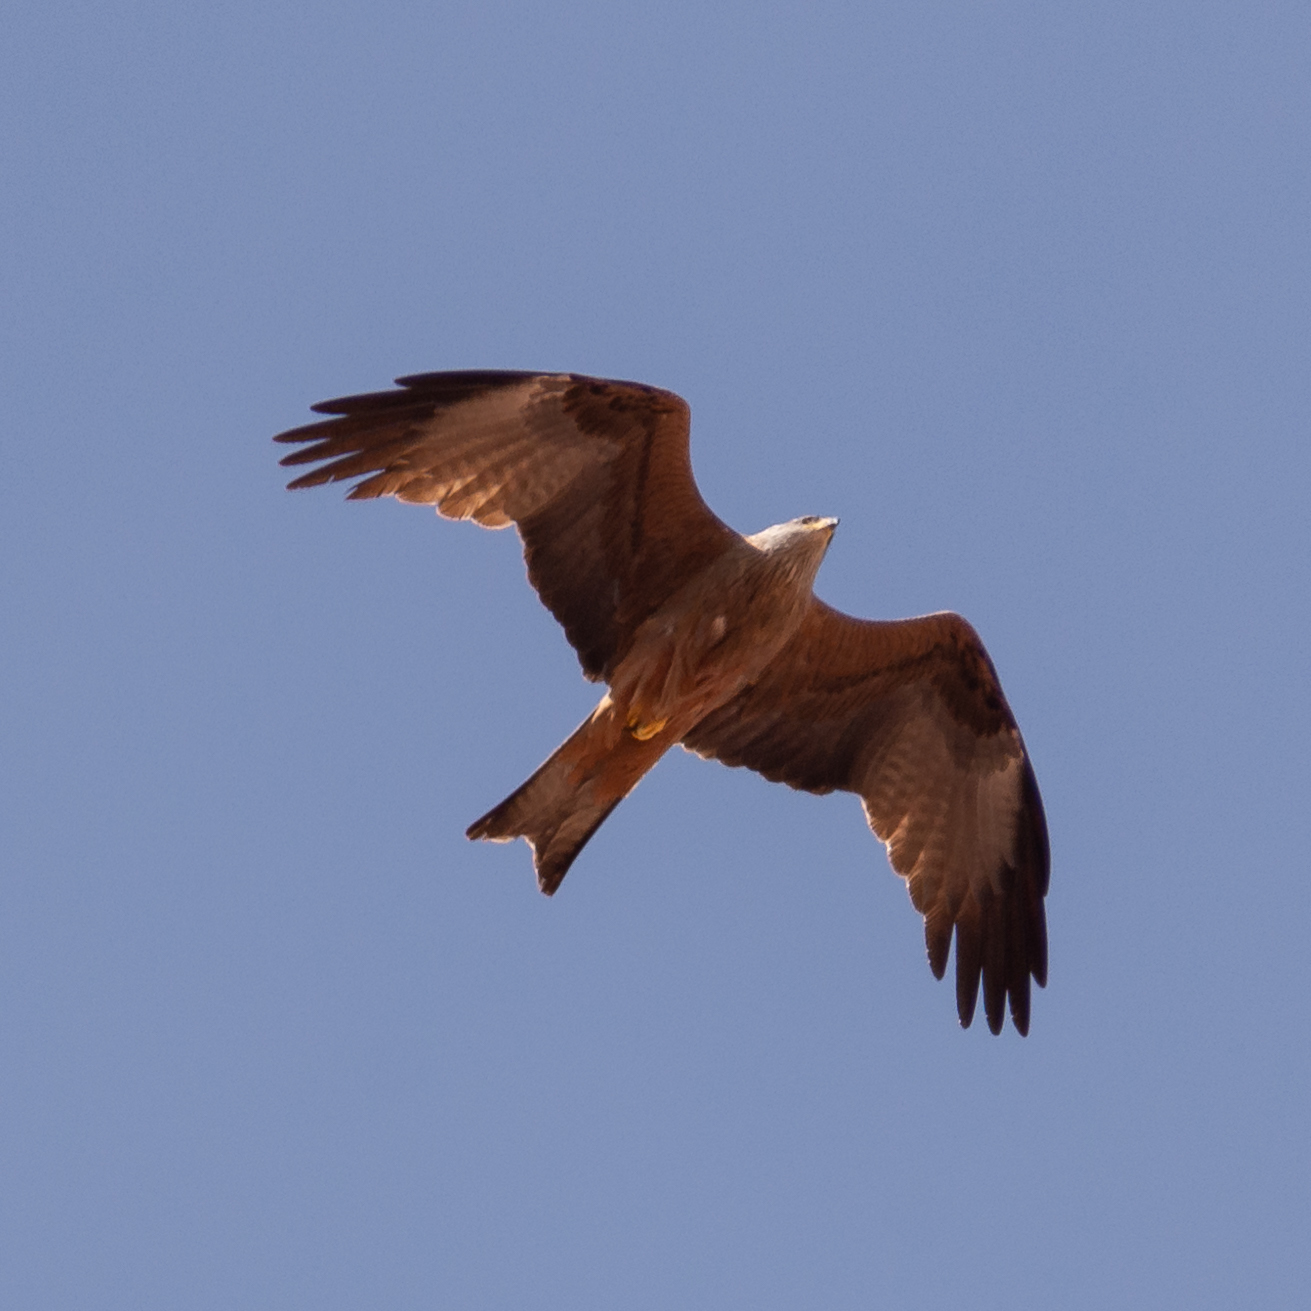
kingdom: Animalia
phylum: Chordata
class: Aves
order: Accipitriformes
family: Accipitridae
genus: Milvus
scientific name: Milvus migrans
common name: Black kite
